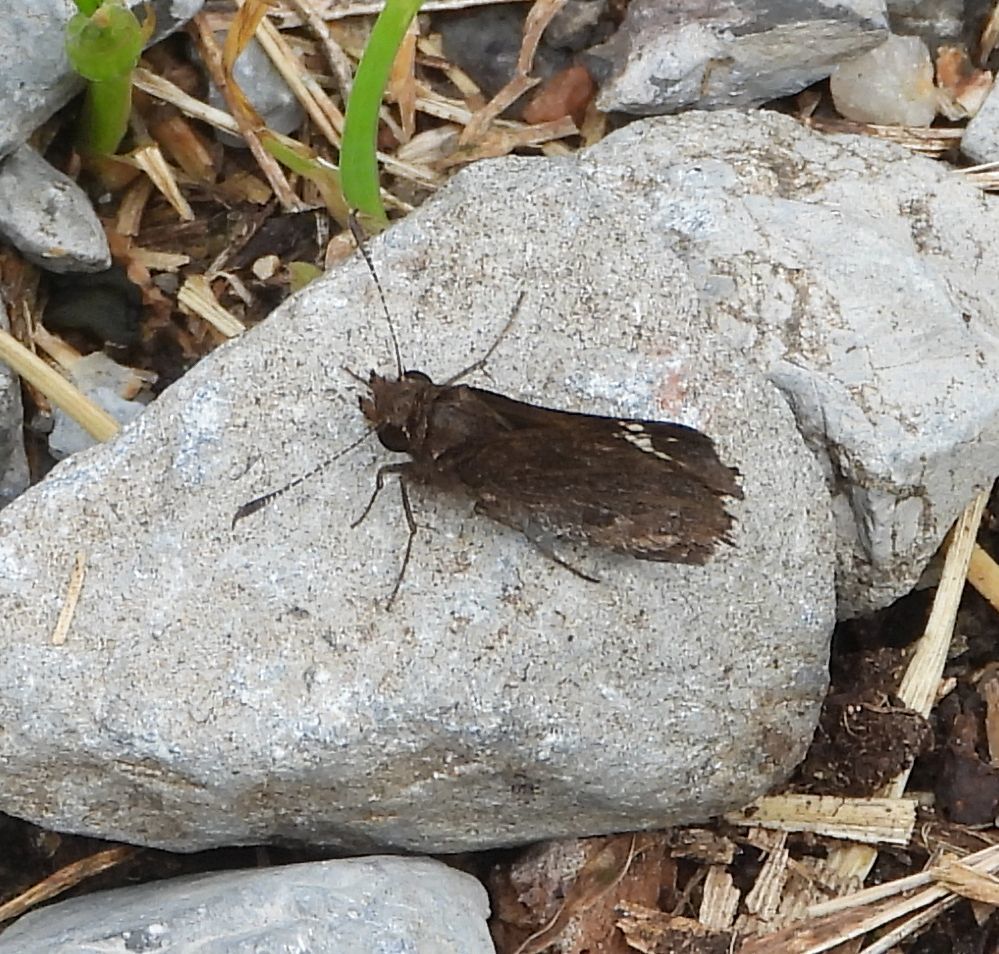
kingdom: Animalia
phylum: Arthropoda
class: Insecta
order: Lepidoptera
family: Hesperiidae
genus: Mastor
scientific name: Mastor vialis
